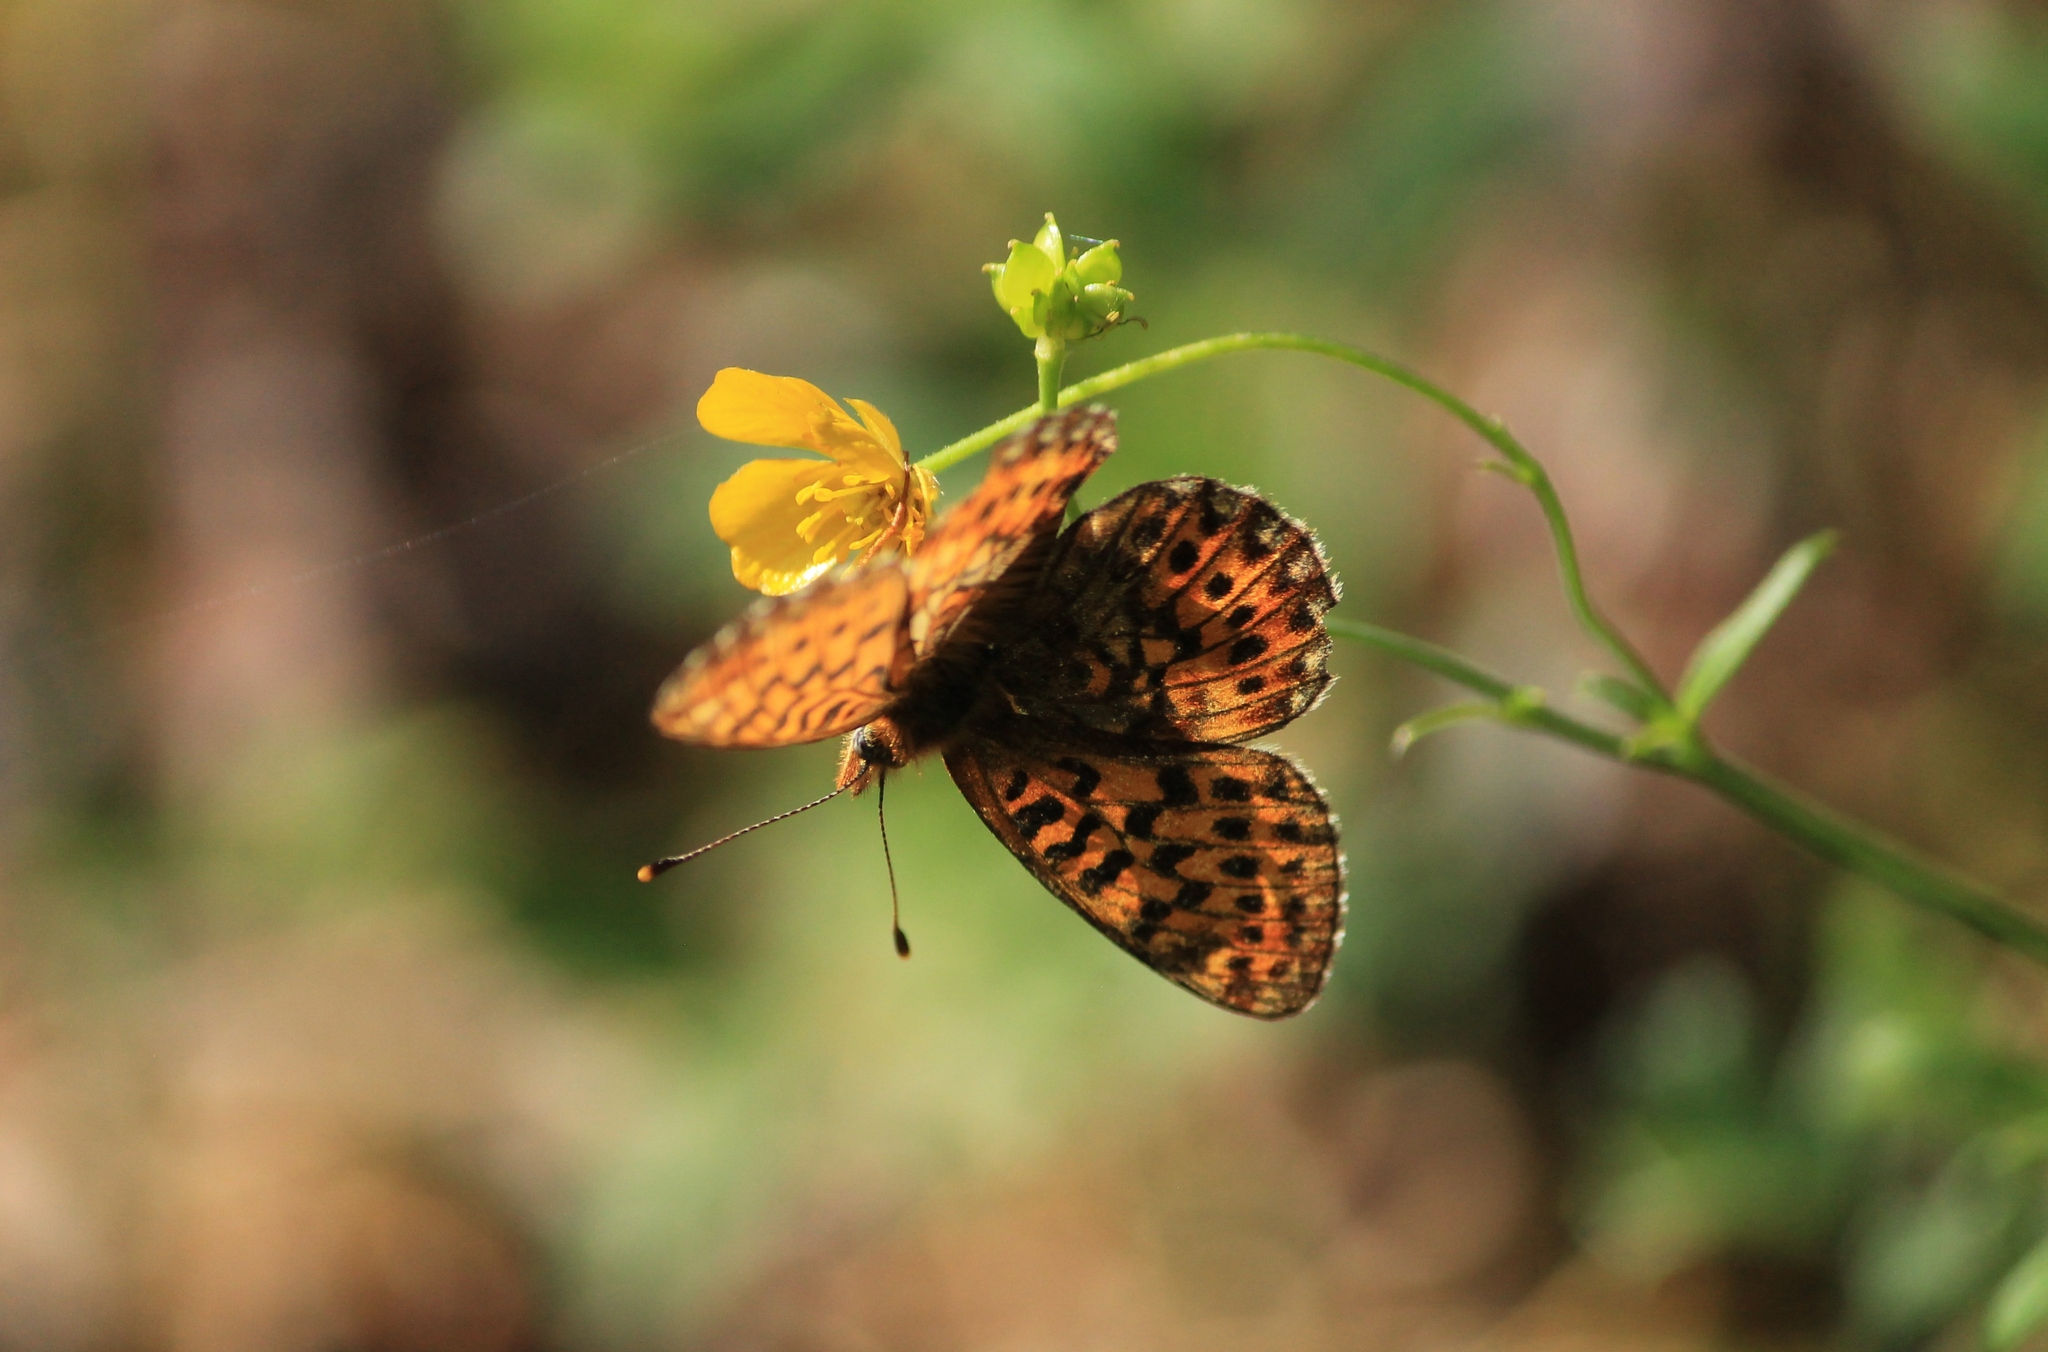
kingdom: Animalia
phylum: Arthropoda
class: Insecta
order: Lepidoptera
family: Nymphalidae
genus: Clossiana
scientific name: Clossiana euphrosyne
